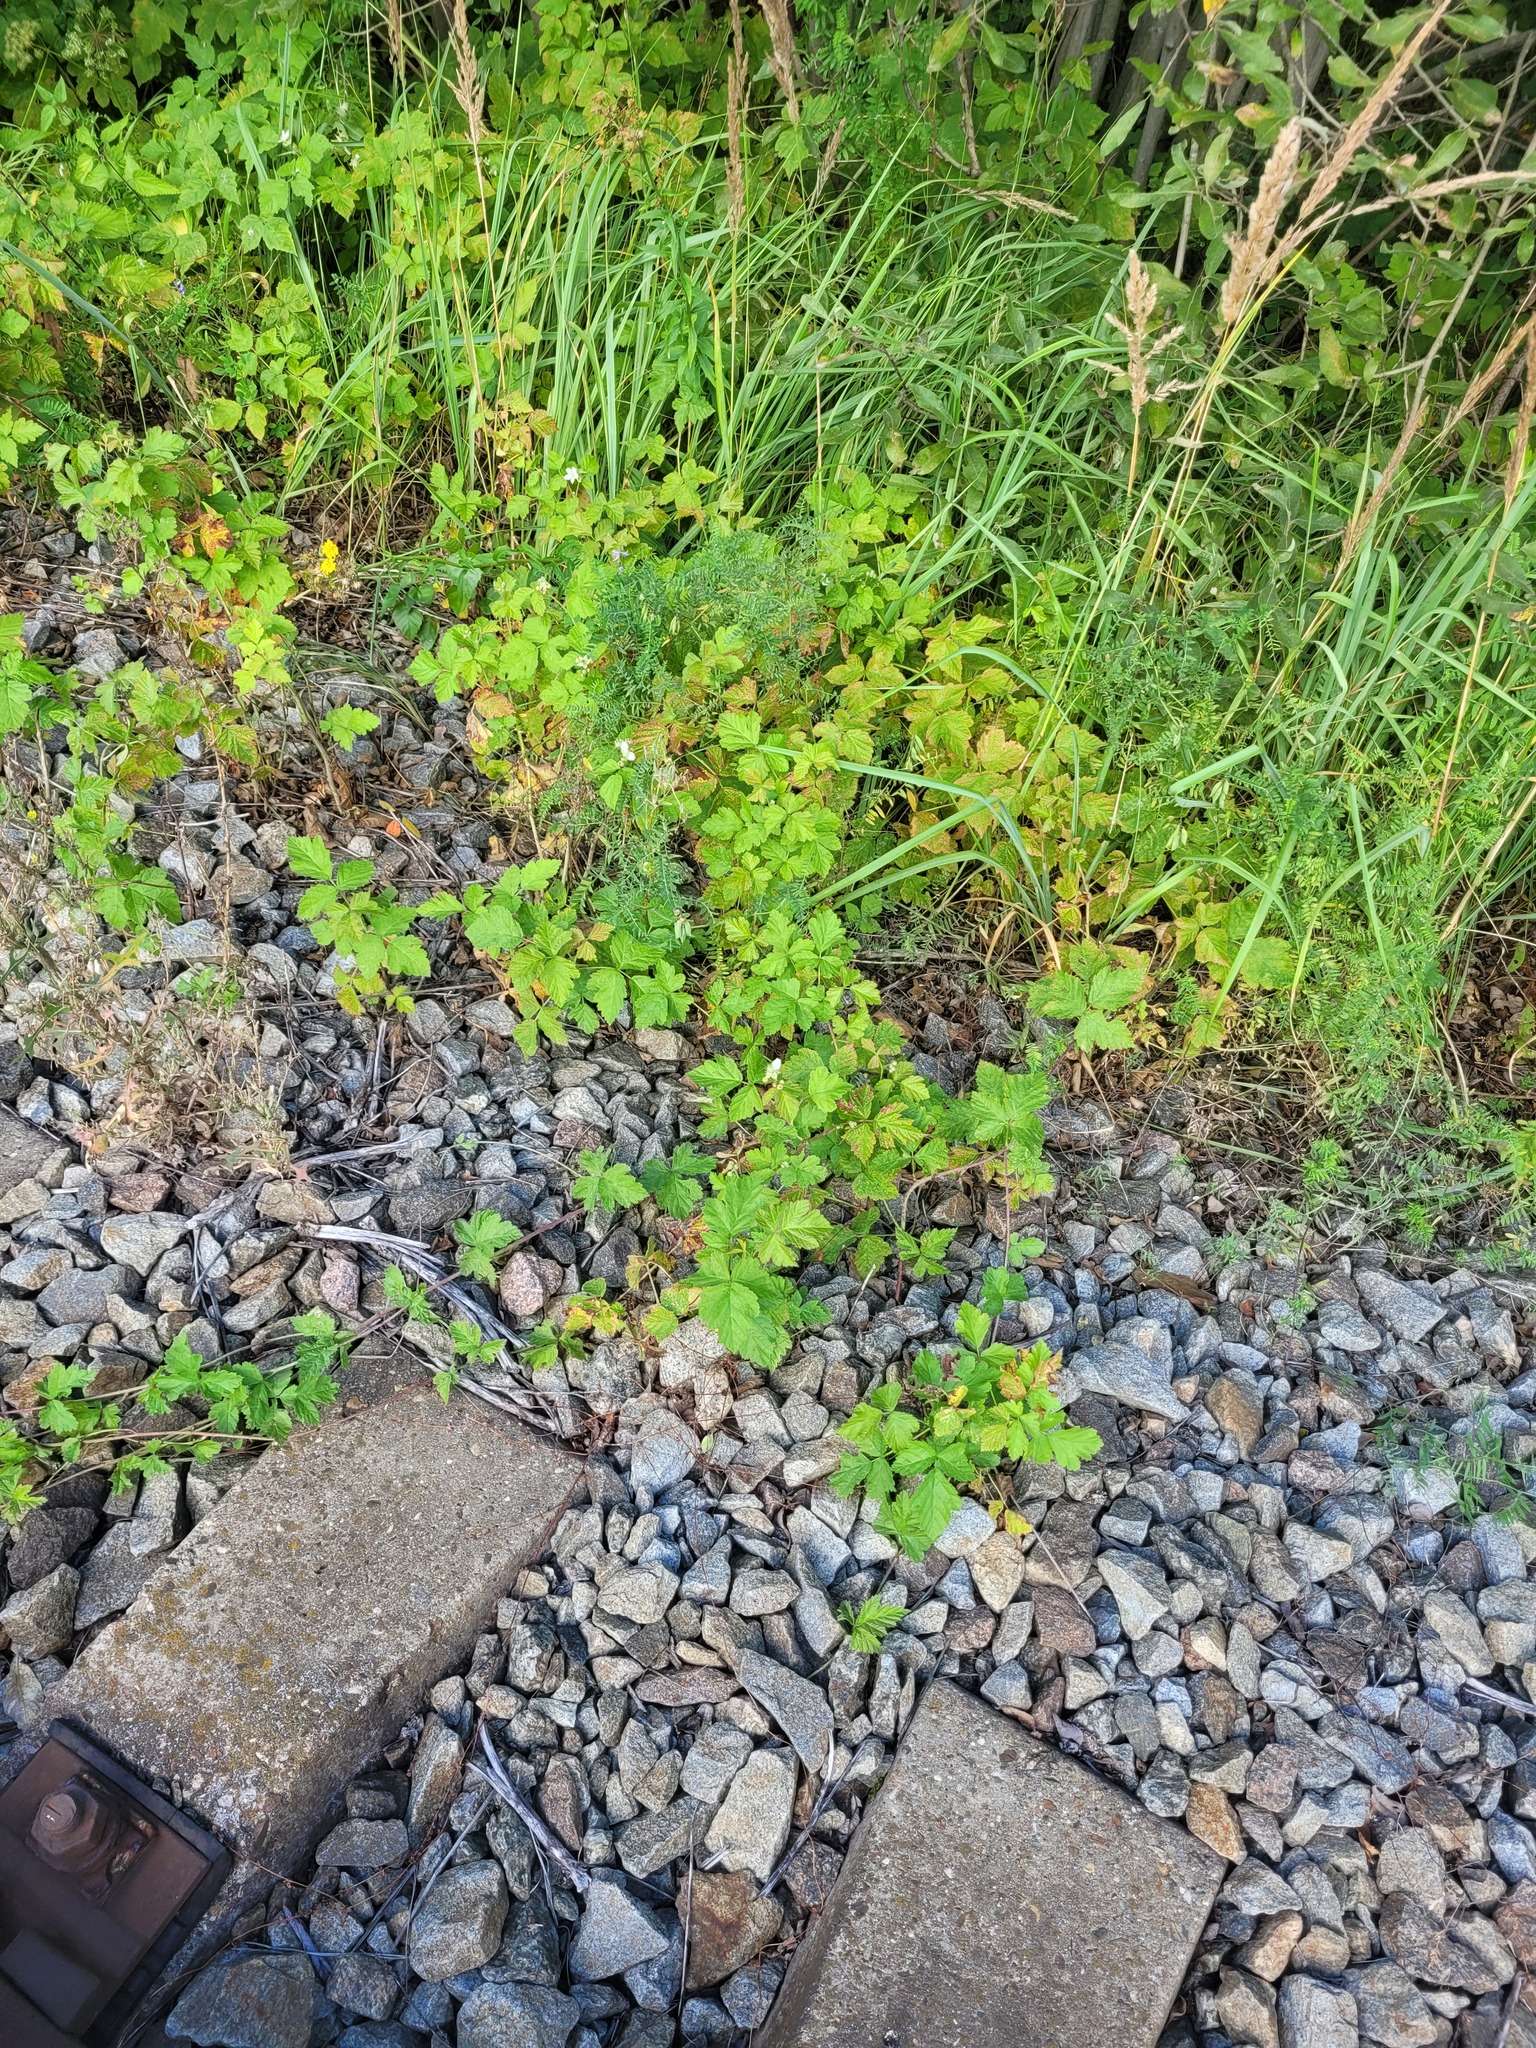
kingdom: Plantae
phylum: Tracheophyta
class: Magnoliopsida
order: Rosales
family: Rosaceae
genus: Rubus
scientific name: Rubus caesius
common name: Dewberry
